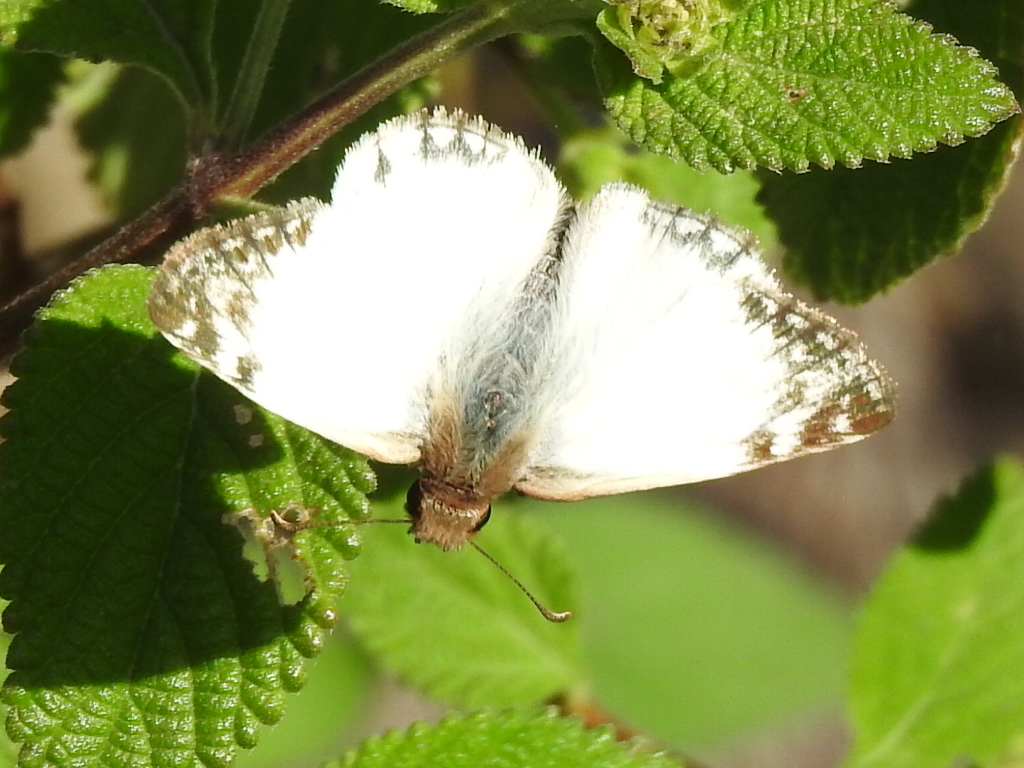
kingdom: Animalia
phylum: Arthropoda
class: Insecta
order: Lepidoptera
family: Hesperiidae
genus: Heliopetes
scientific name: Heliopetes laviana
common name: Laviana white-skipper
